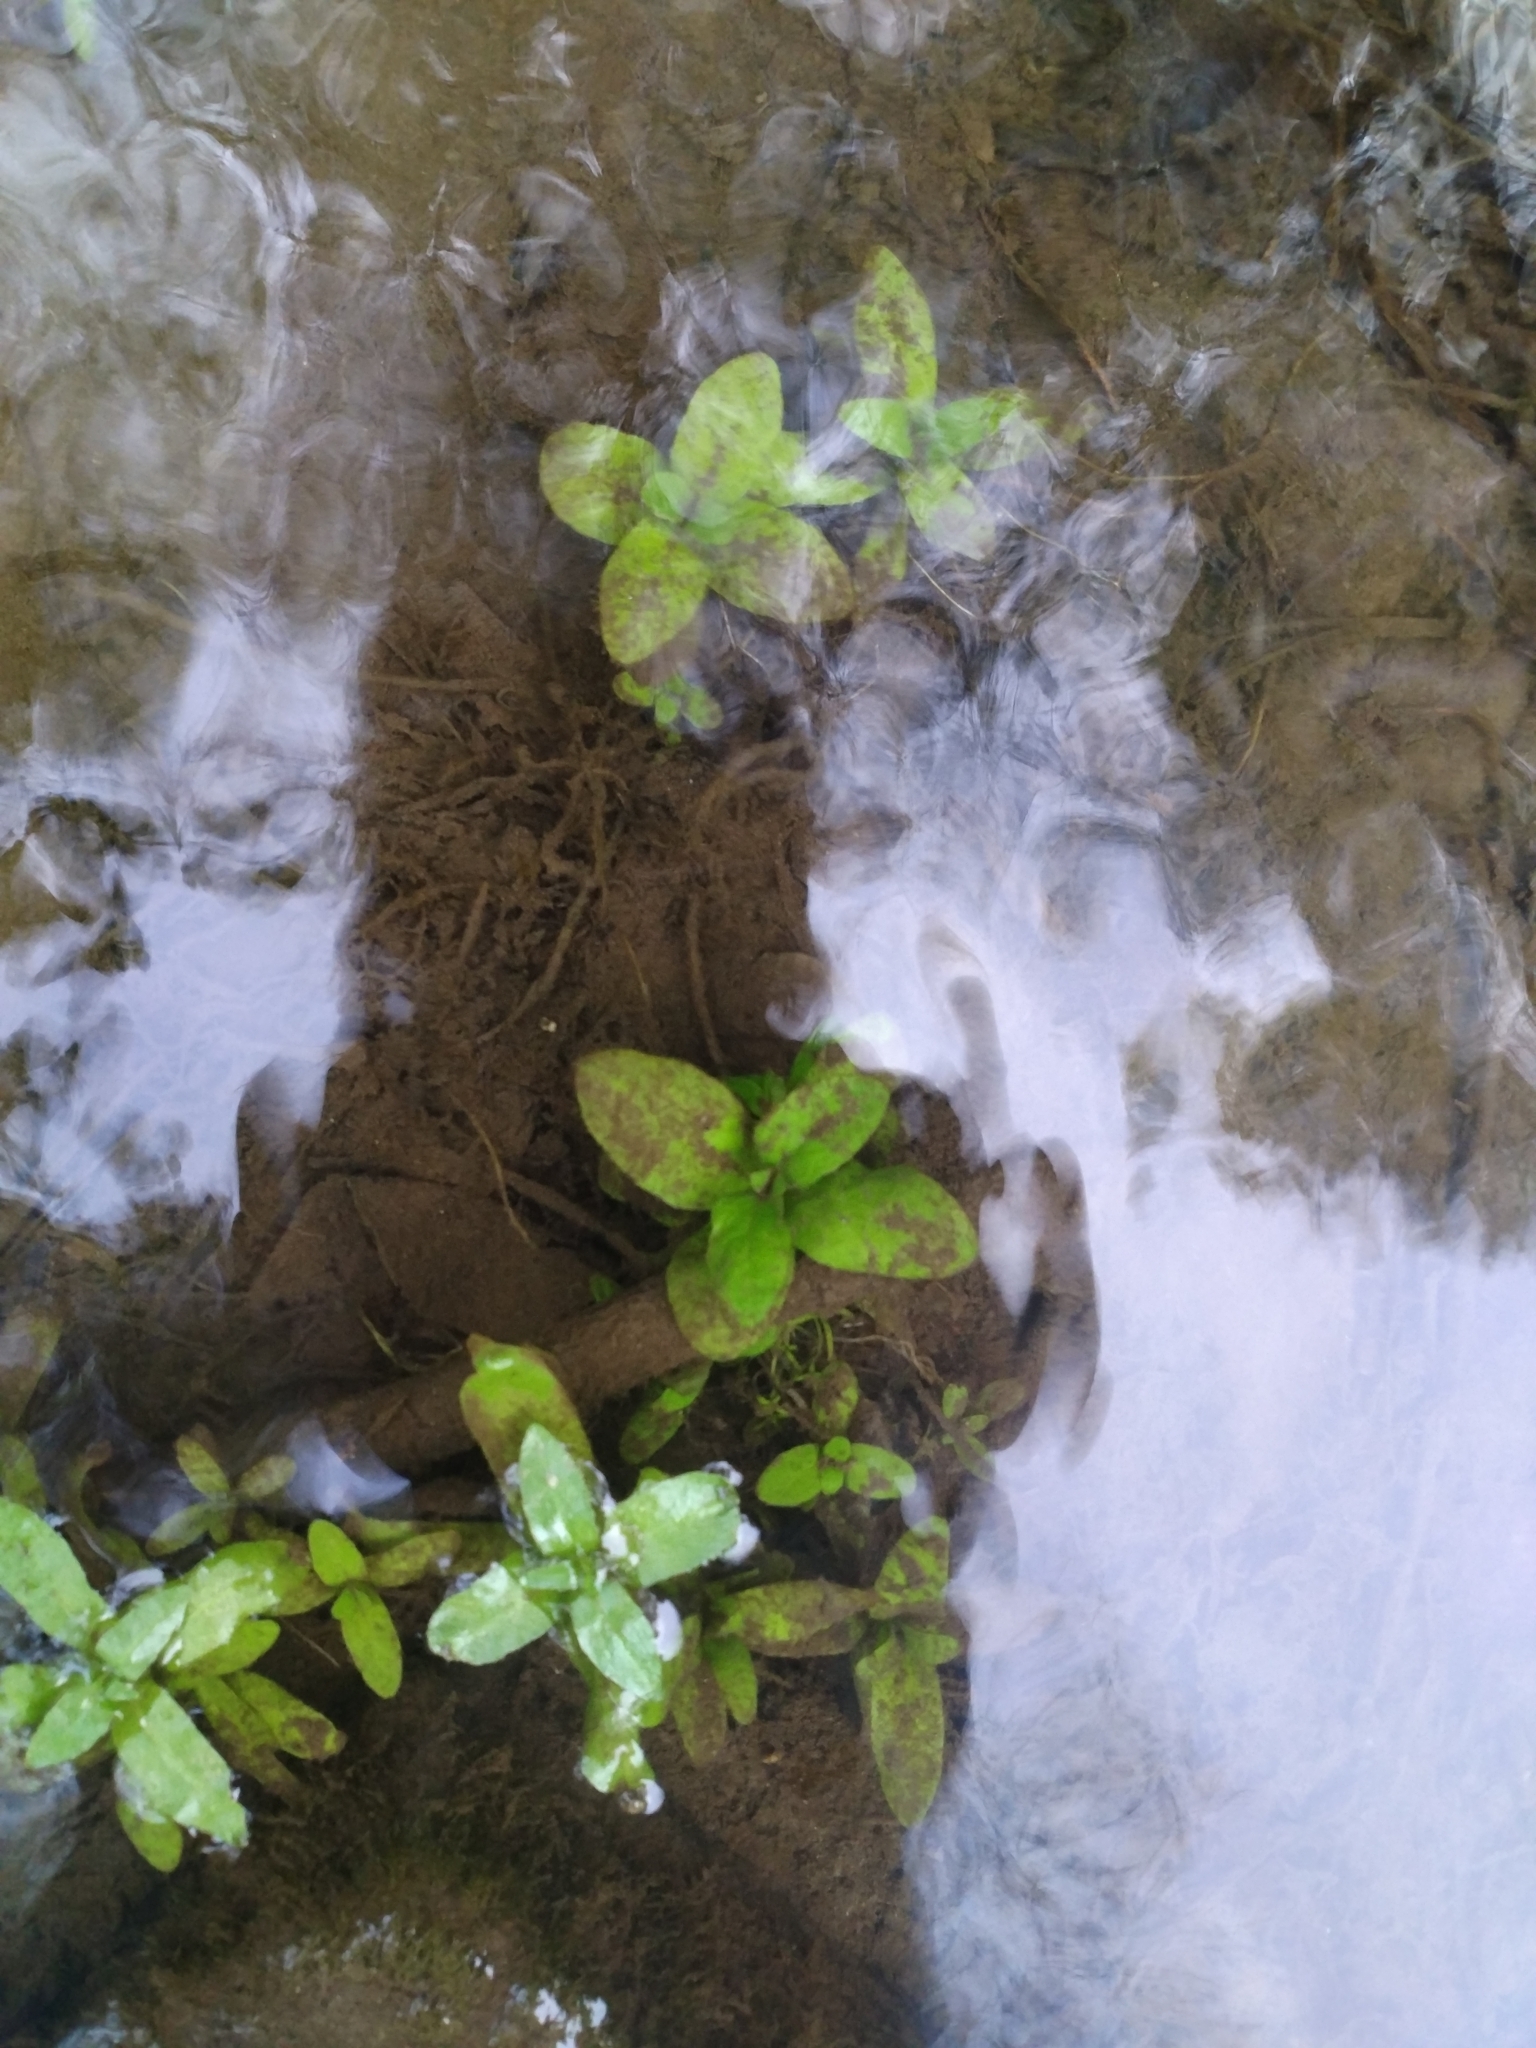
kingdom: Plantae
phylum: Tracheophyta
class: Magnoliopsida
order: Lamiales
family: Plantaginaceae
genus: Veronica
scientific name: Veronica anagallis-aquatica
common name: Water speedwell
